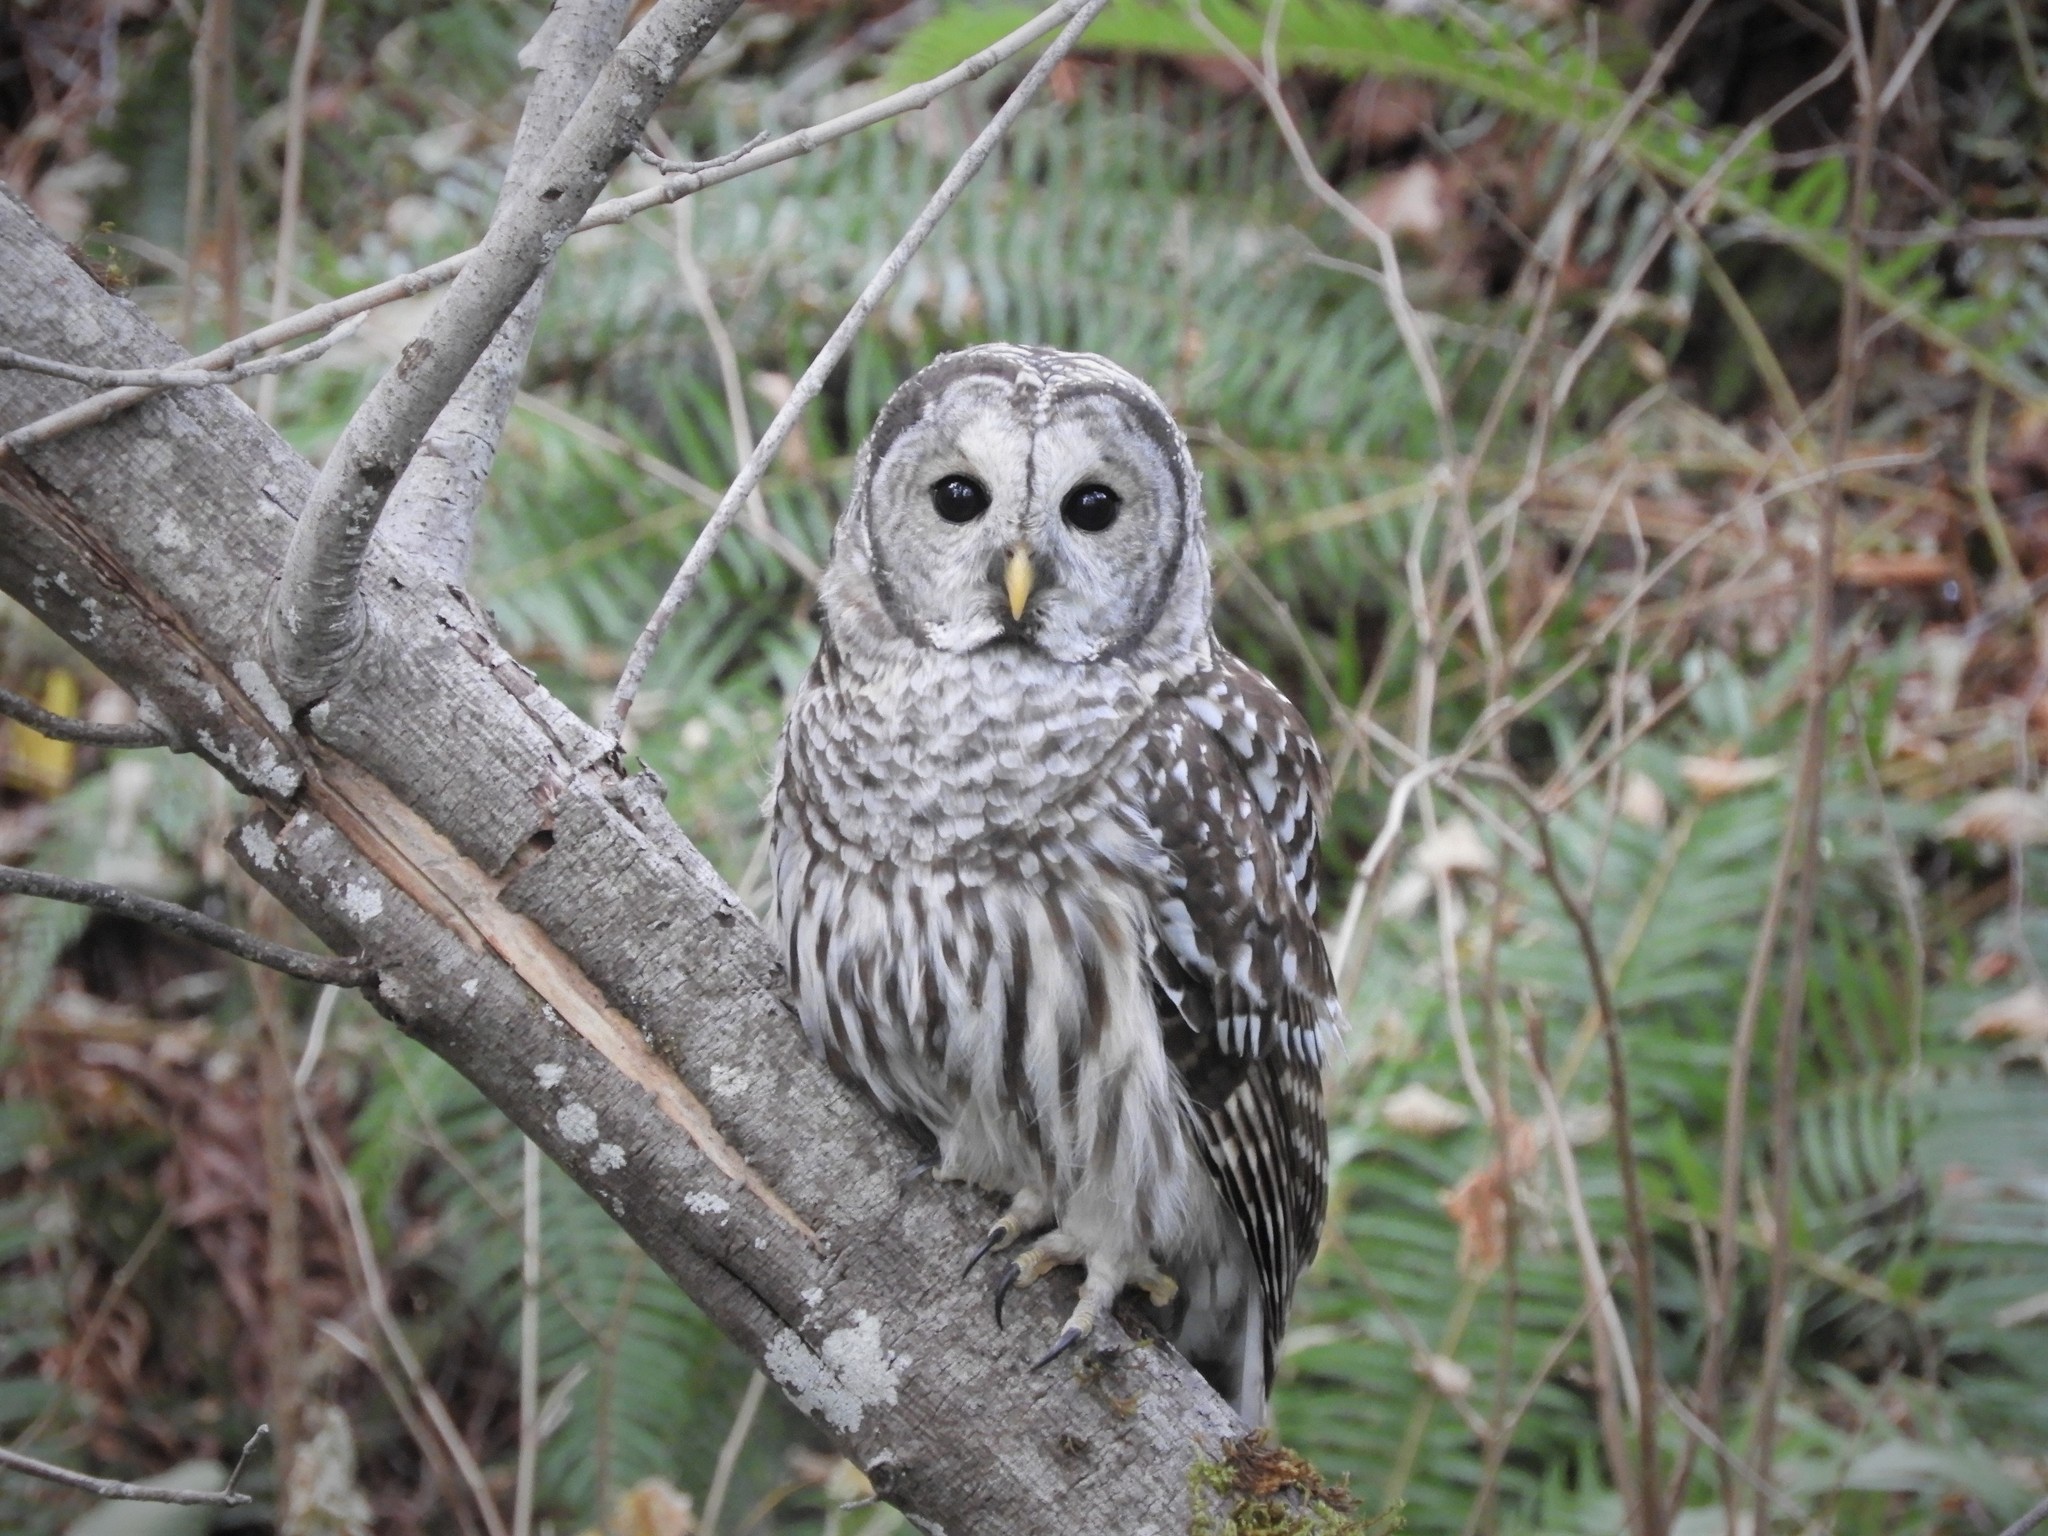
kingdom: Animalia
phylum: Chordata
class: Aves
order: Strigiformes
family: Strigidae
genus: Strix
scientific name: Strix varia
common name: Barred owl
